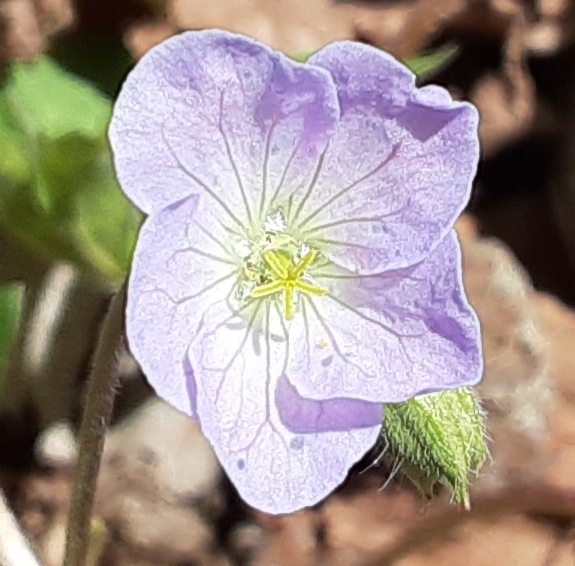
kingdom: Plantae
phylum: Tracheophyta
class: Magnoliopsida
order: Geraniales
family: Geraniaceae
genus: Geranium
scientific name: Geranium maculatum
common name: Spotted geranium
